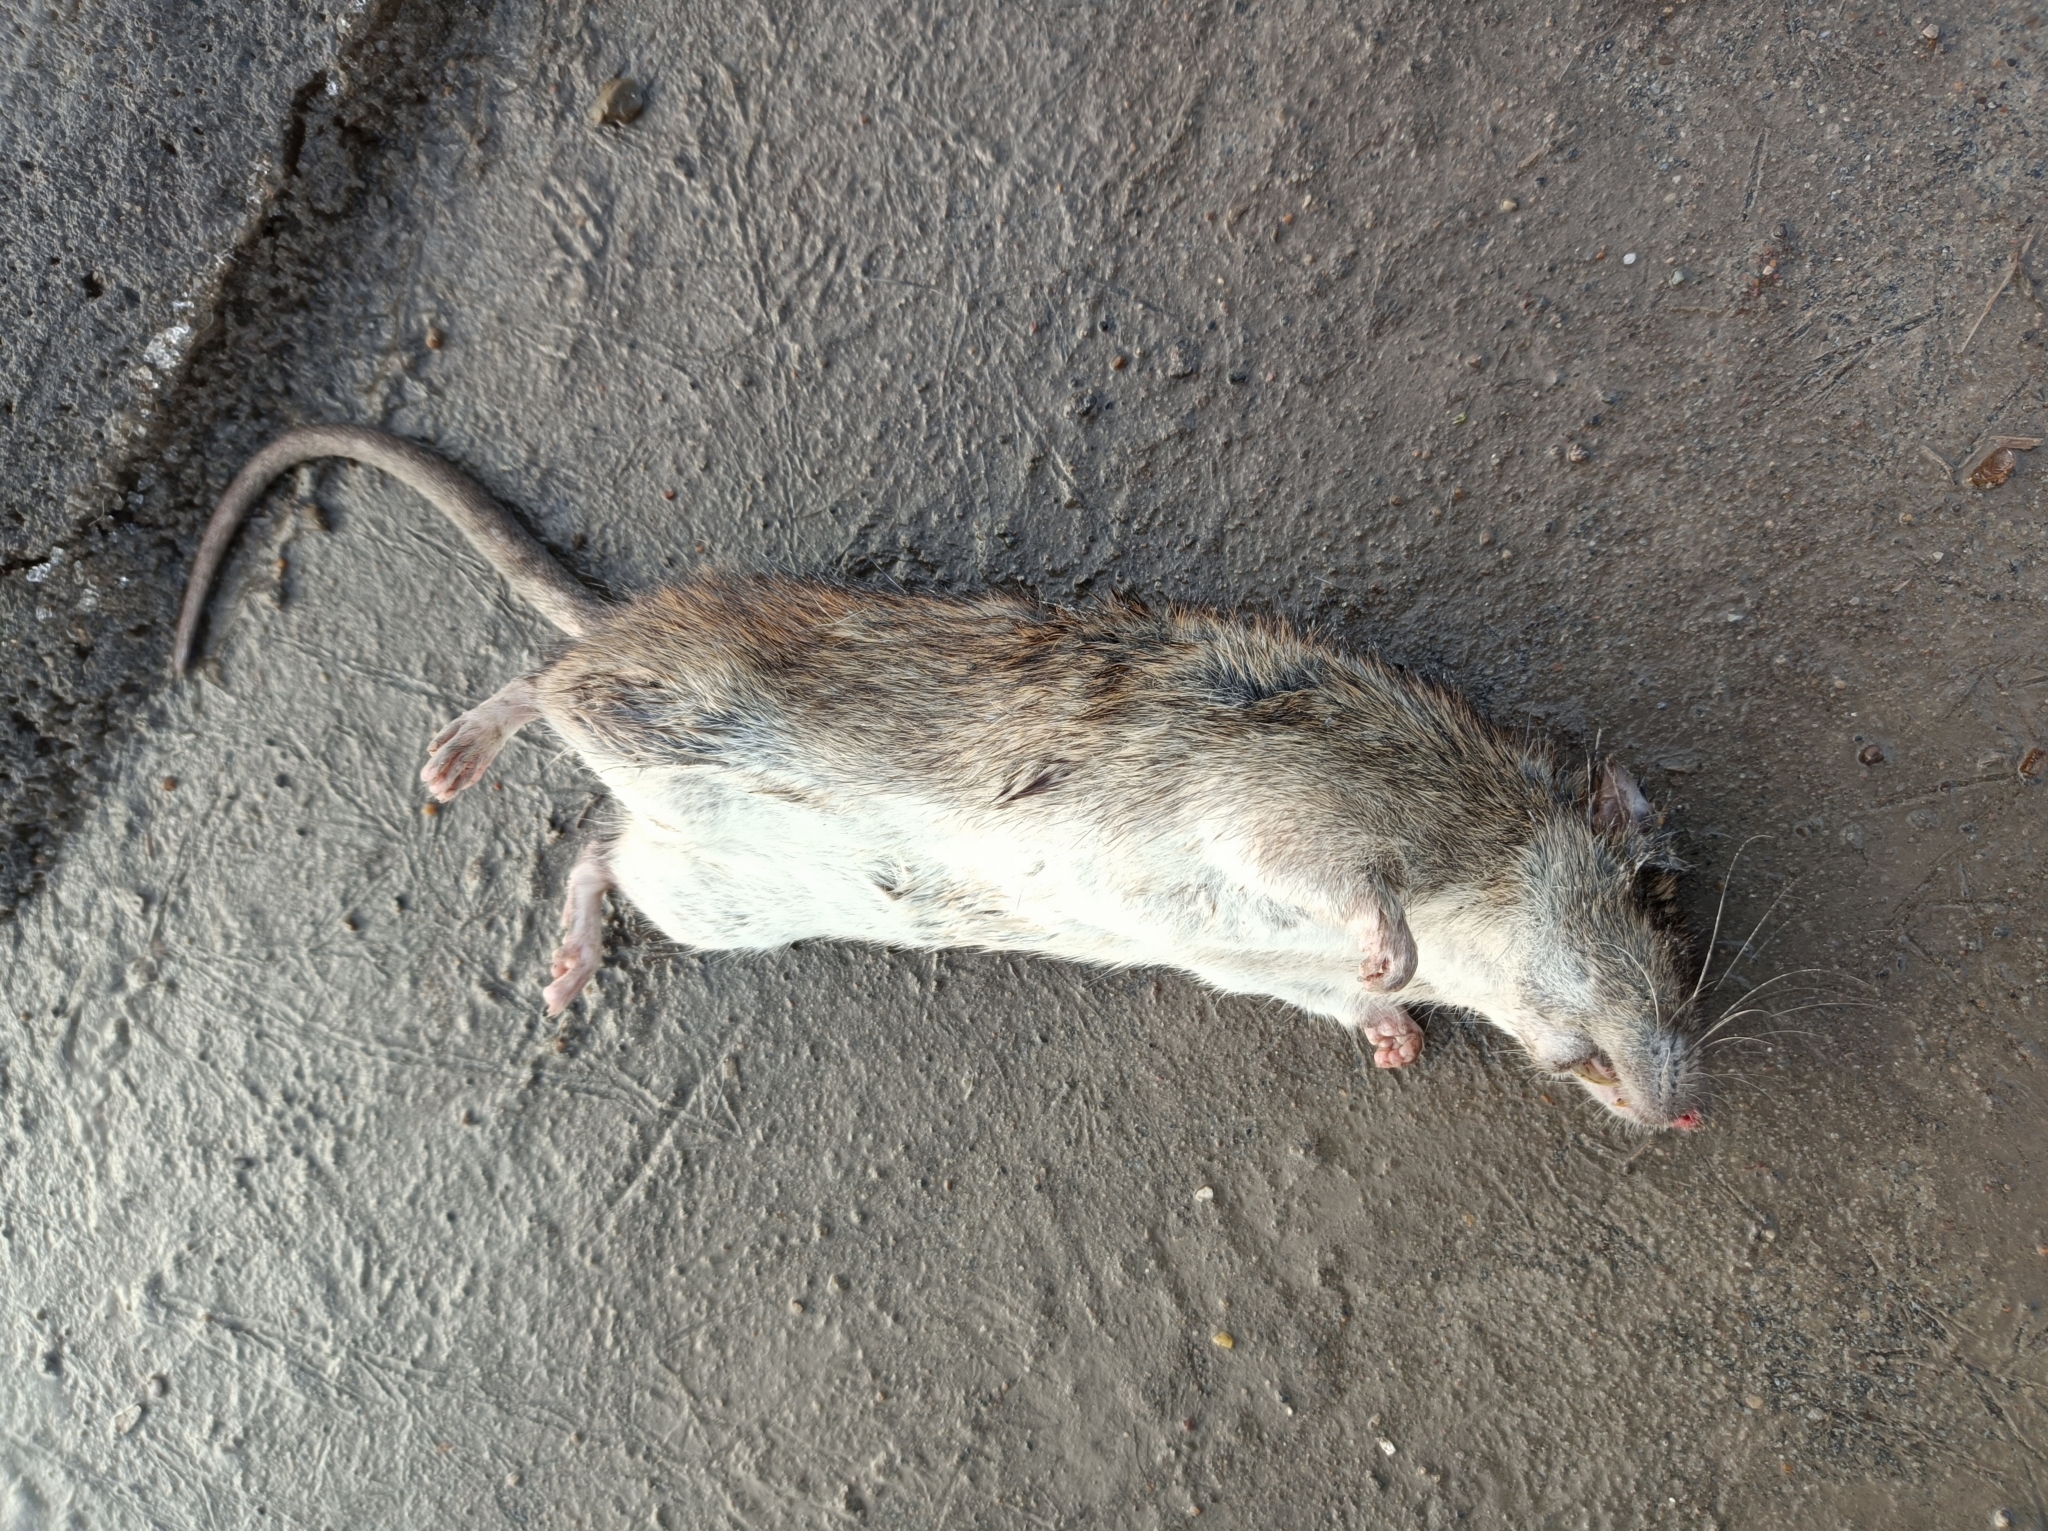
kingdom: Animalia
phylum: Chordata
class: Mammalia
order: Rodentia
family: Muridae
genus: Rattus
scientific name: Rattus norvegicus
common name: Brown rat
